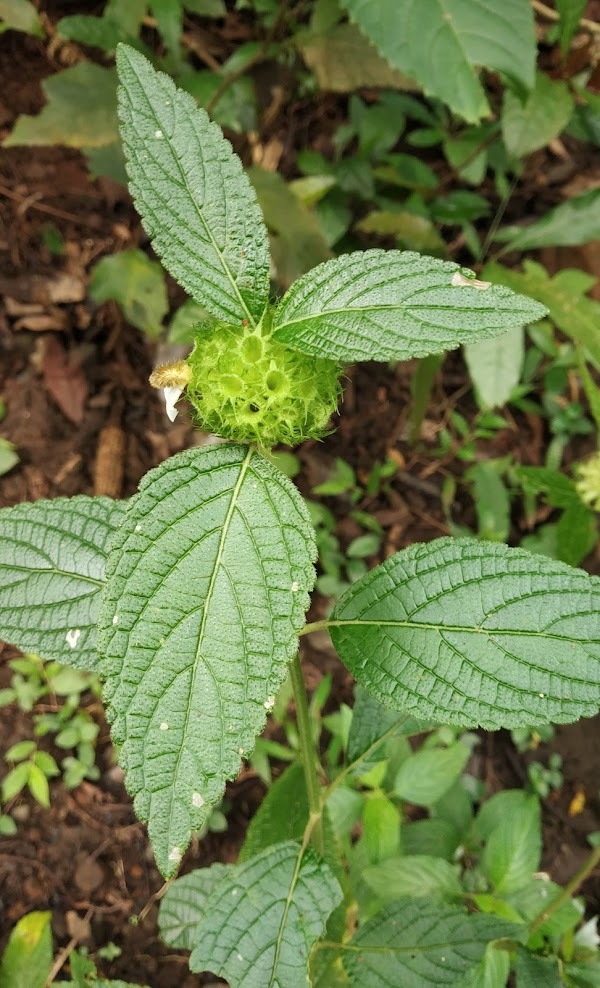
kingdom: Plantae
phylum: Tracheophyta
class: Magnoliopsida
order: Lamiales
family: Lamiaceae
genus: Leucas
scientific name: Leucas ciliata
